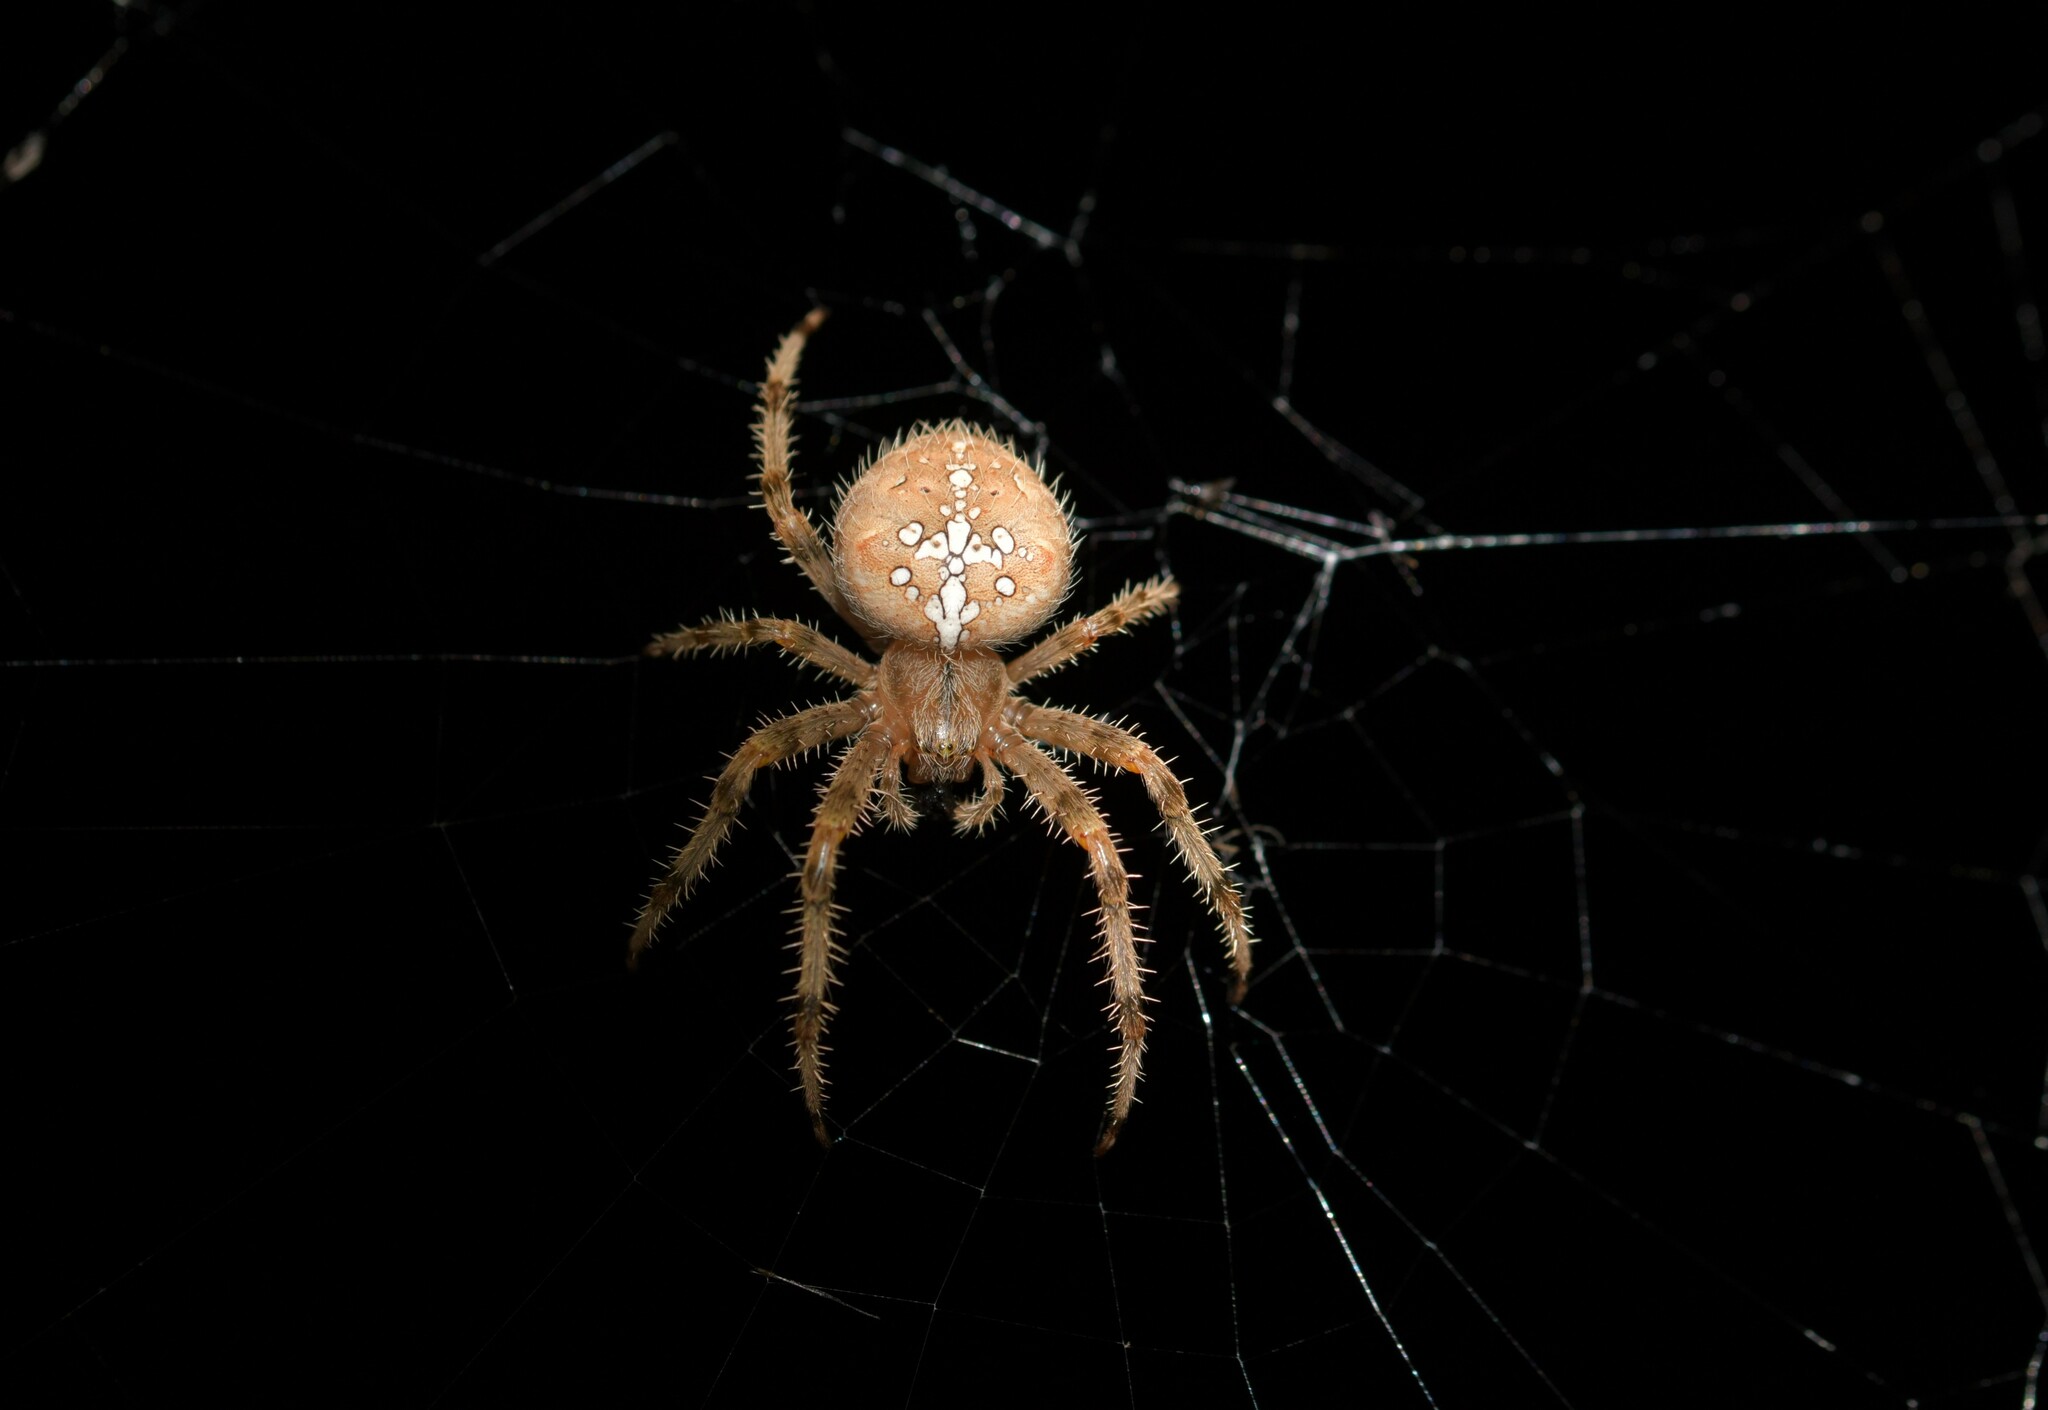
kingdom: Animalia
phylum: Arthropoda
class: Arachnida
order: Araneae
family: Araneidae
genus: Araneus
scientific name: Araneus pallidus
